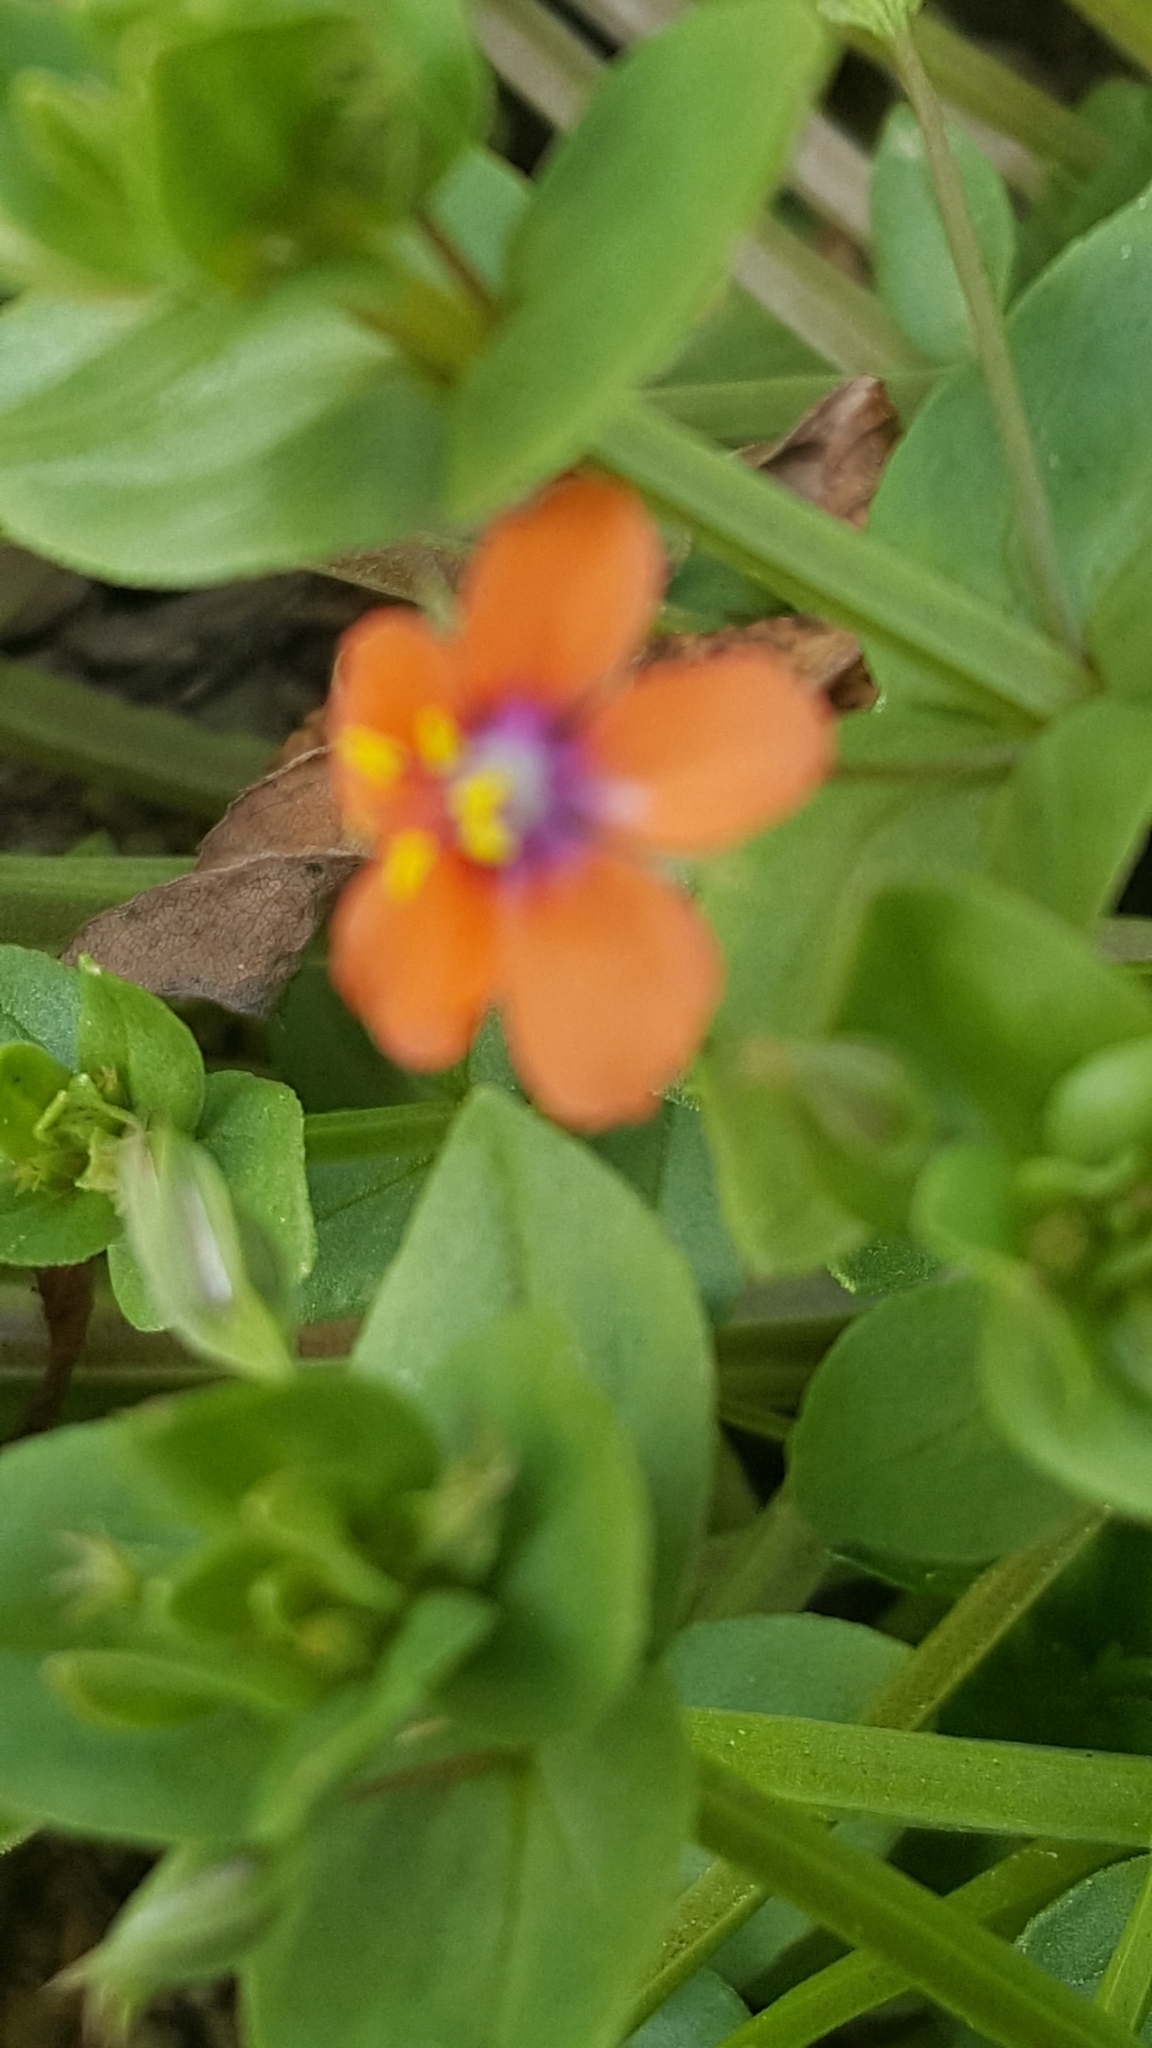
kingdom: Plantae
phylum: Tracheophyta
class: Magnoliopsida
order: Ericales
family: Primulaceae
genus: Lysimachia
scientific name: Lysimachia arvensis
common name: Scarlet pimpernel
